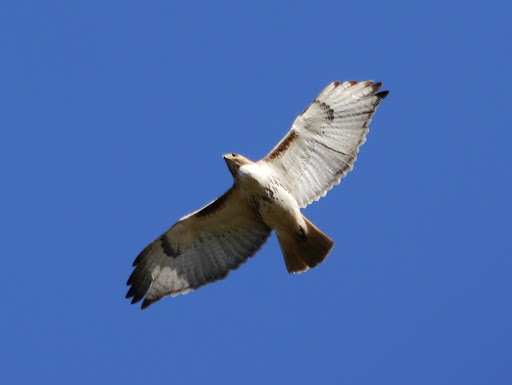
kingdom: Animalia
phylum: Chordata
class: Aves
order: Accipitriformes
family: Accipitridae
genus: Buteo
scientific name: Buteo jamaicensis
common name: Red-tailed hawk
